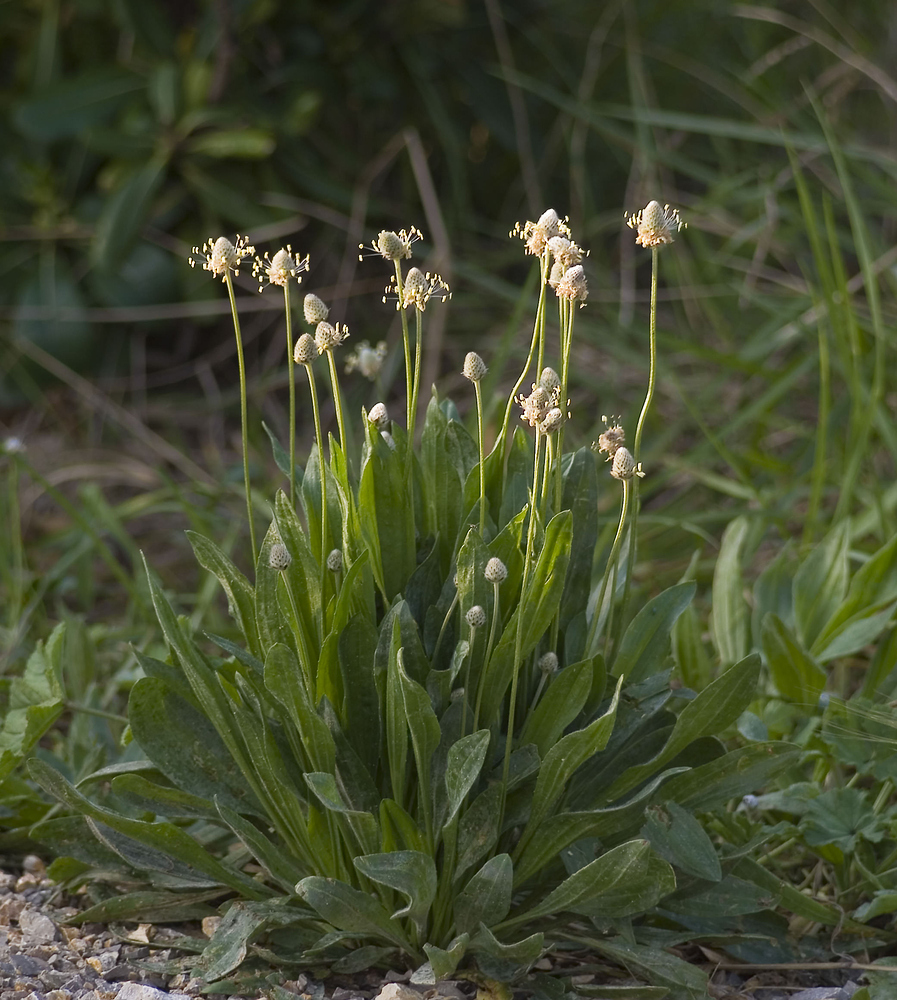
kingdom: Plantae
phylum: Tracheophyta
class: Magnoliopsida
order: Lamiales
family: Plantaginaceae
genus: Plantago
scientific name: Plantago lagopus
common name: Hare-foot plantain
